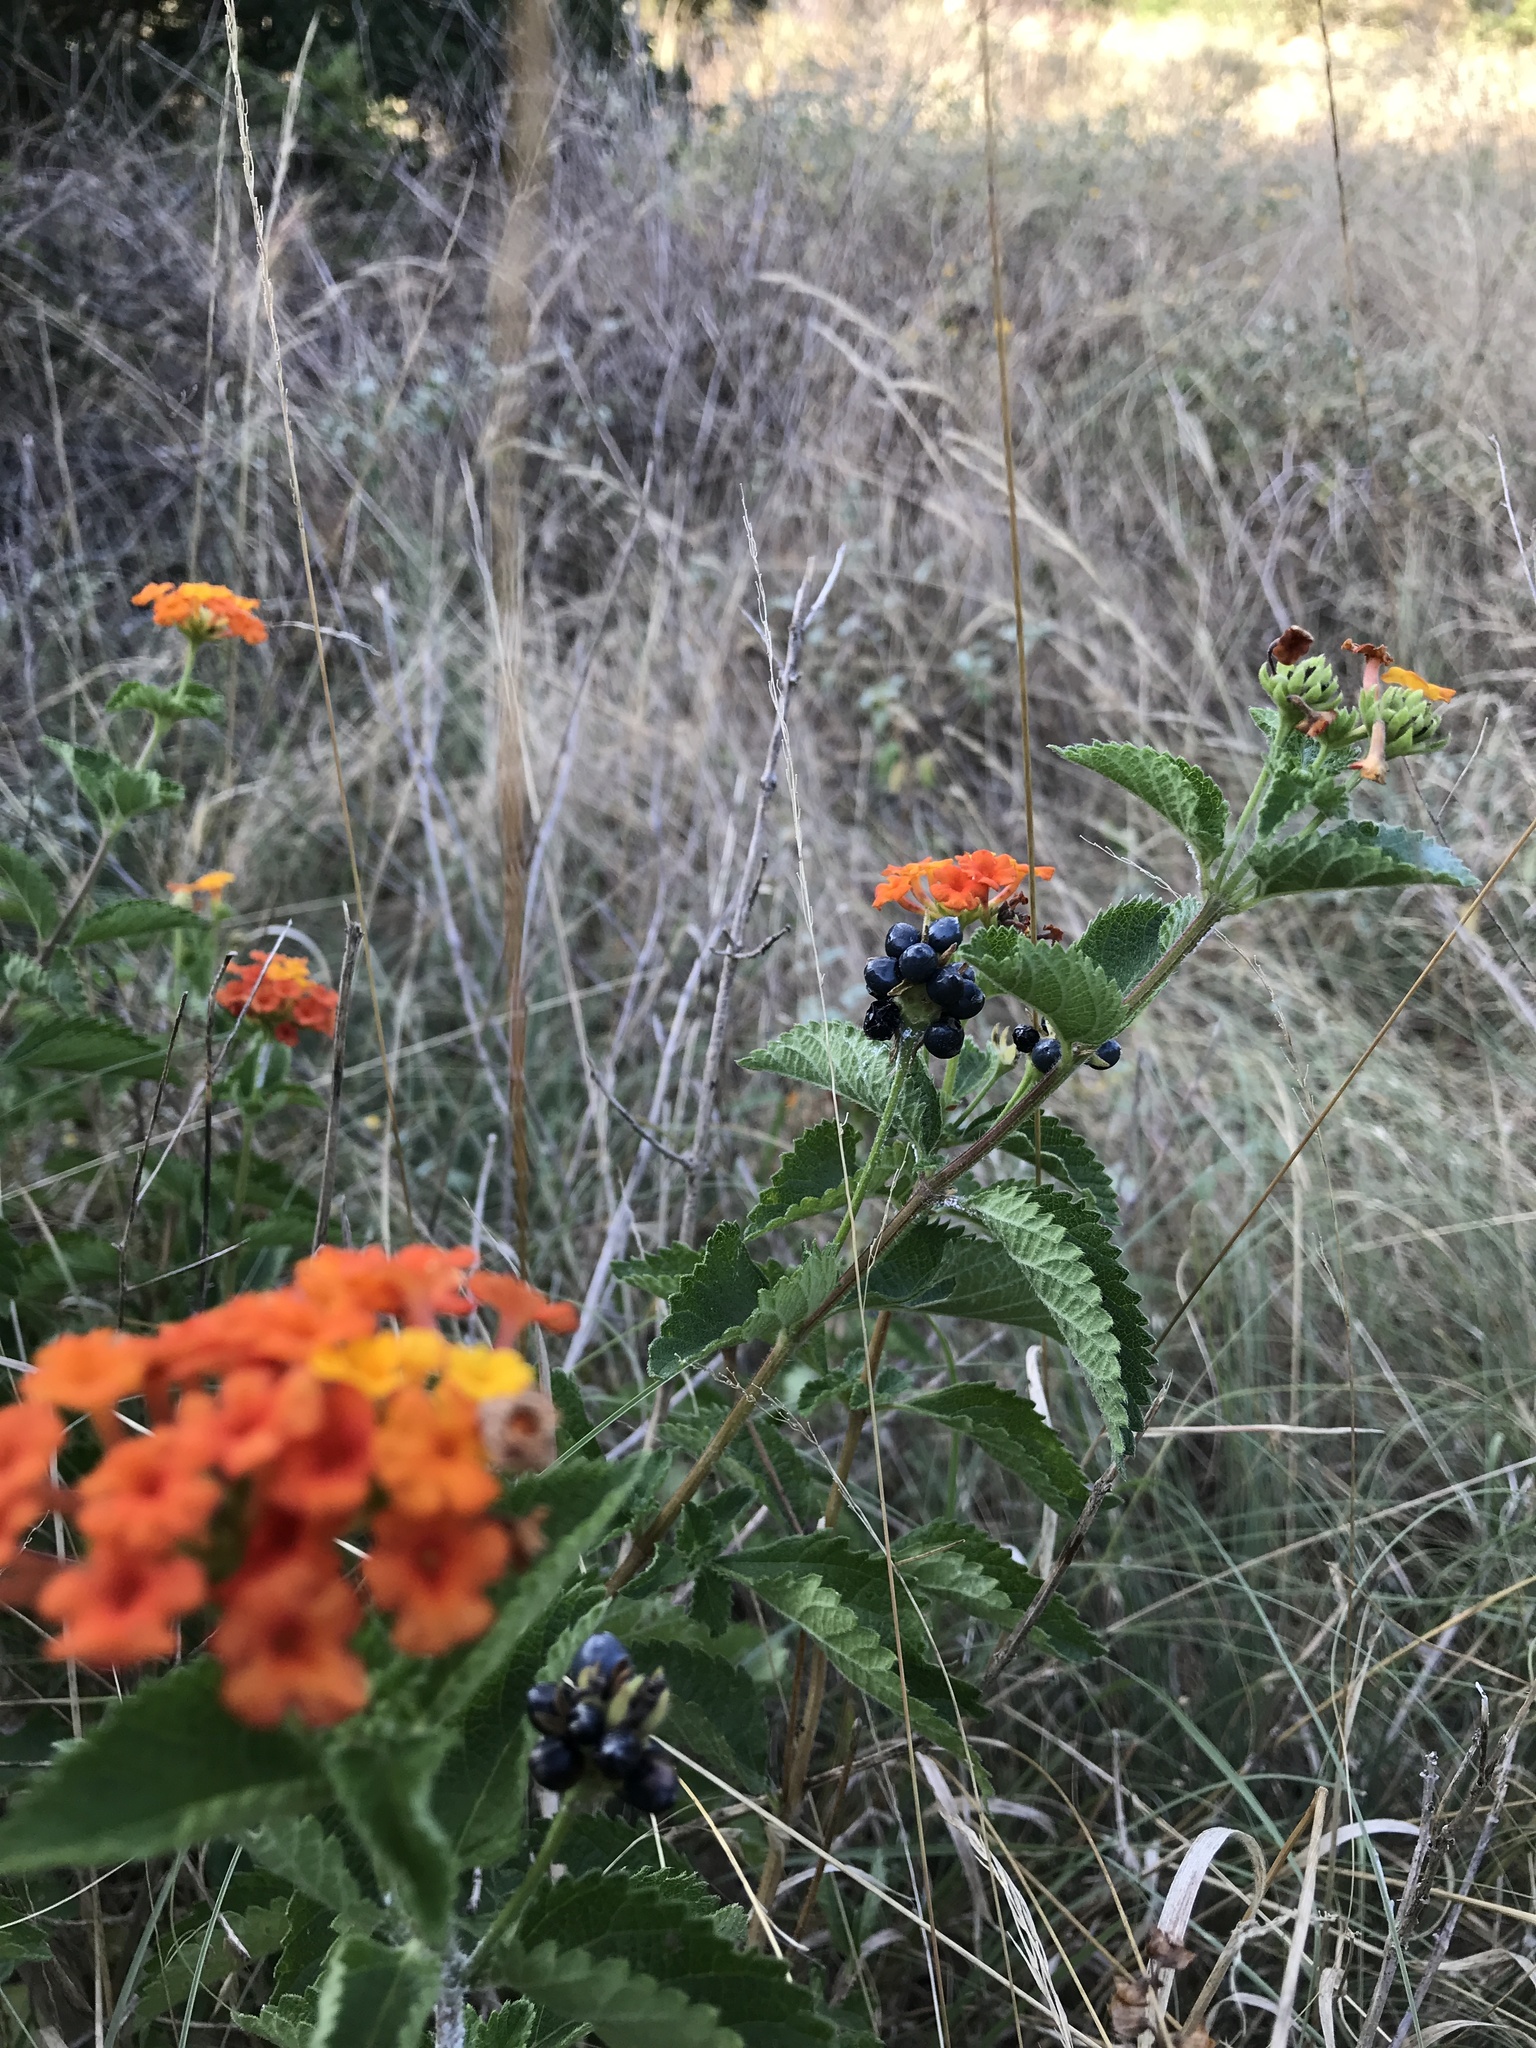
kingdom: Plantae
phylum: Tracheophyta
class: Magnoliopsida
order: Lamiales
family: Verbenaceae
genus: Lantana
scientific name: Lantana urticoides
